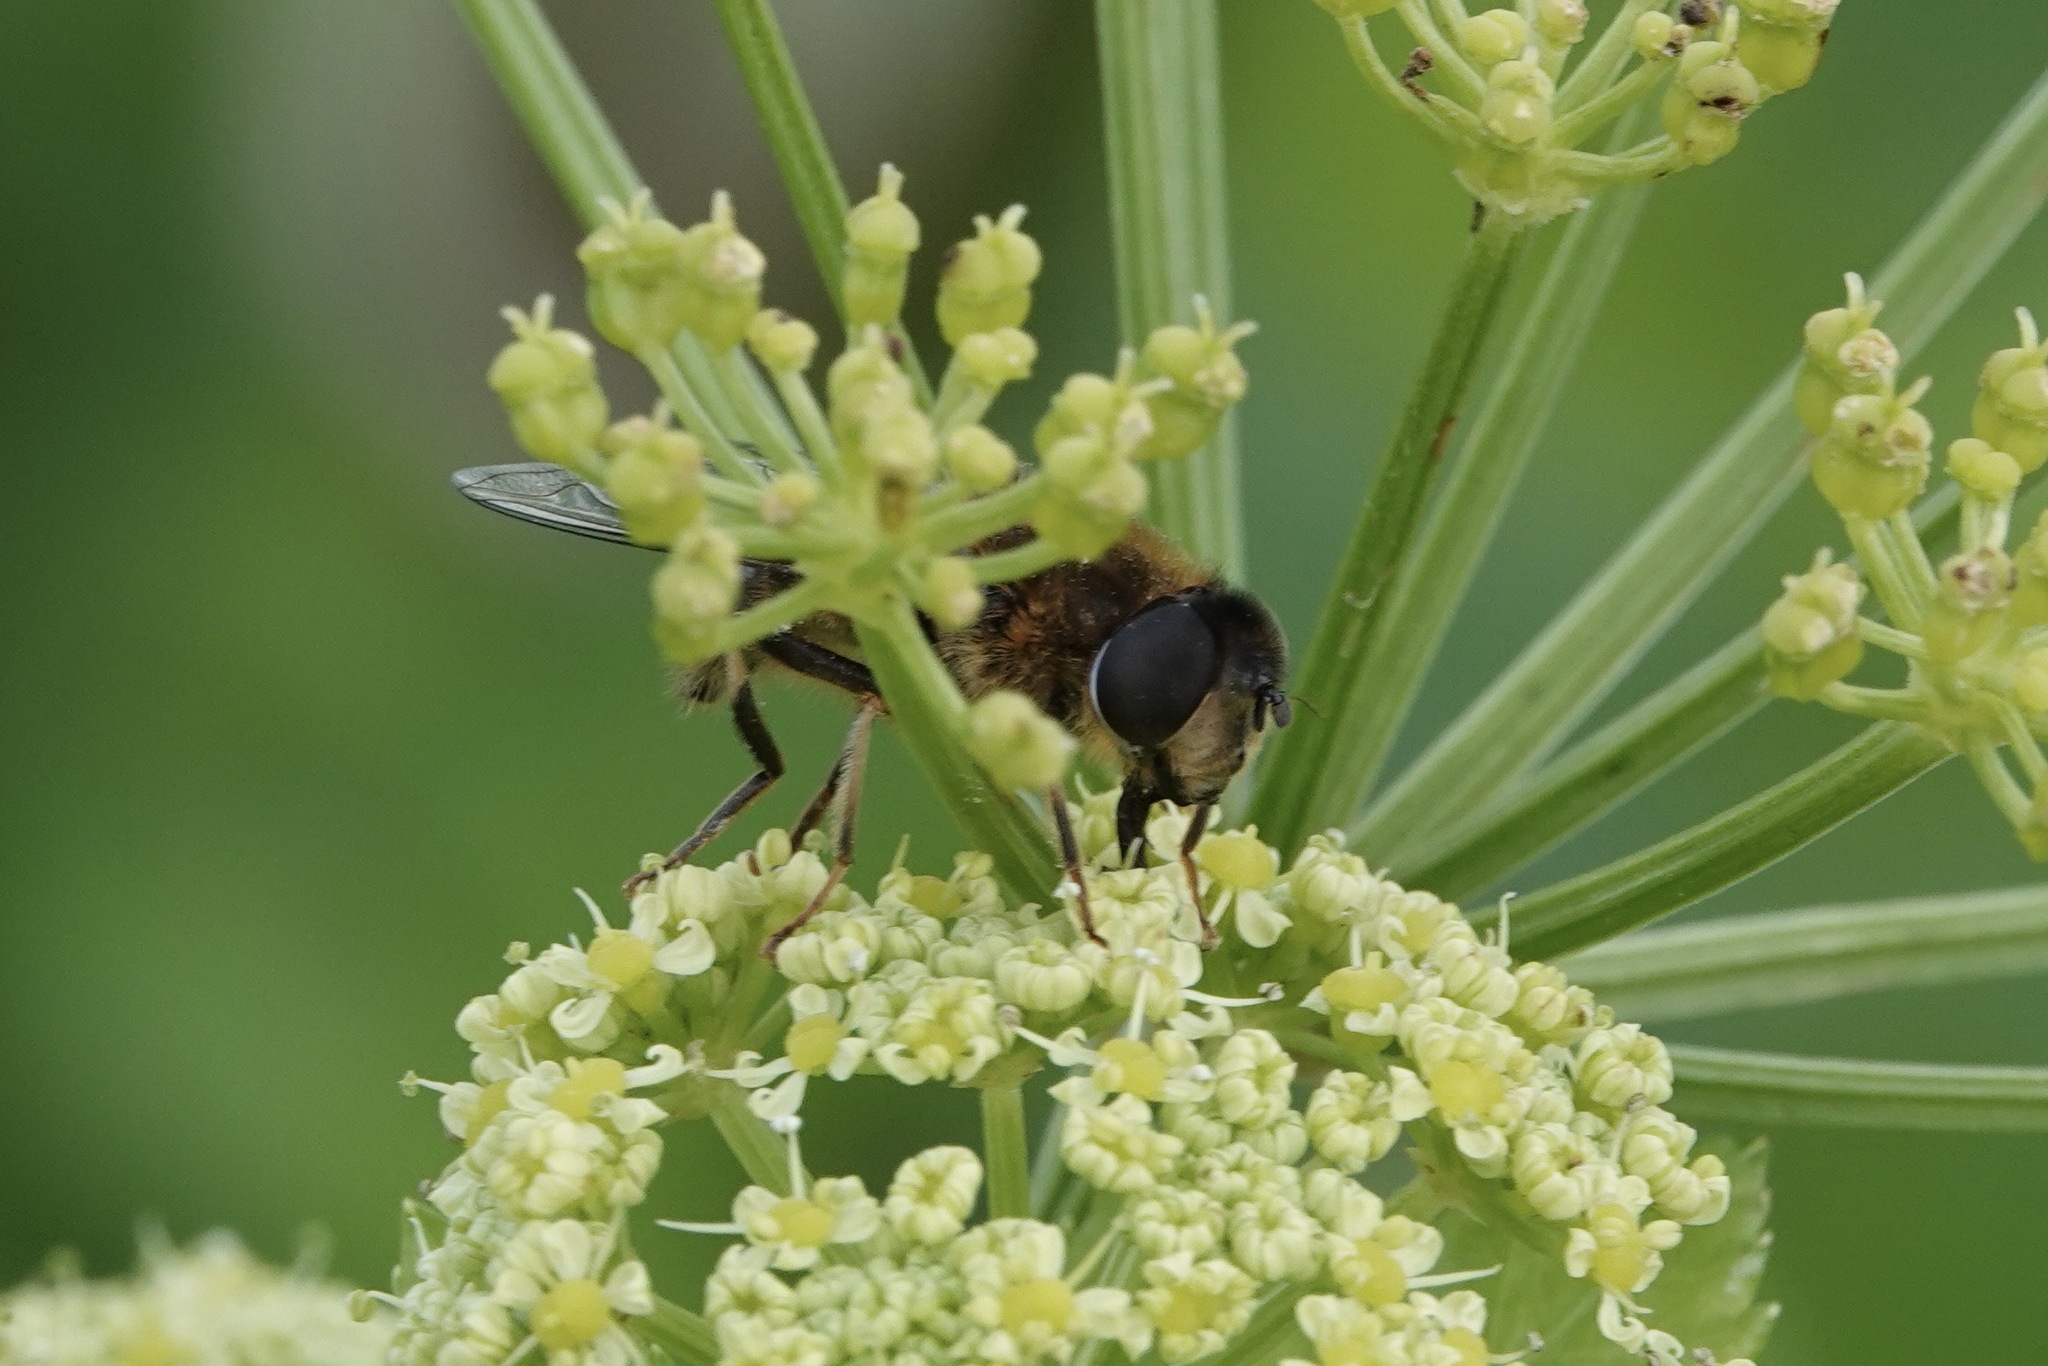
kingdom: Animalia
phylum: Arthropoda
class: Insecta
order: Diptera
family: Syrphidae
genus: Eristalis
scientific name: Eristalis pertinax
